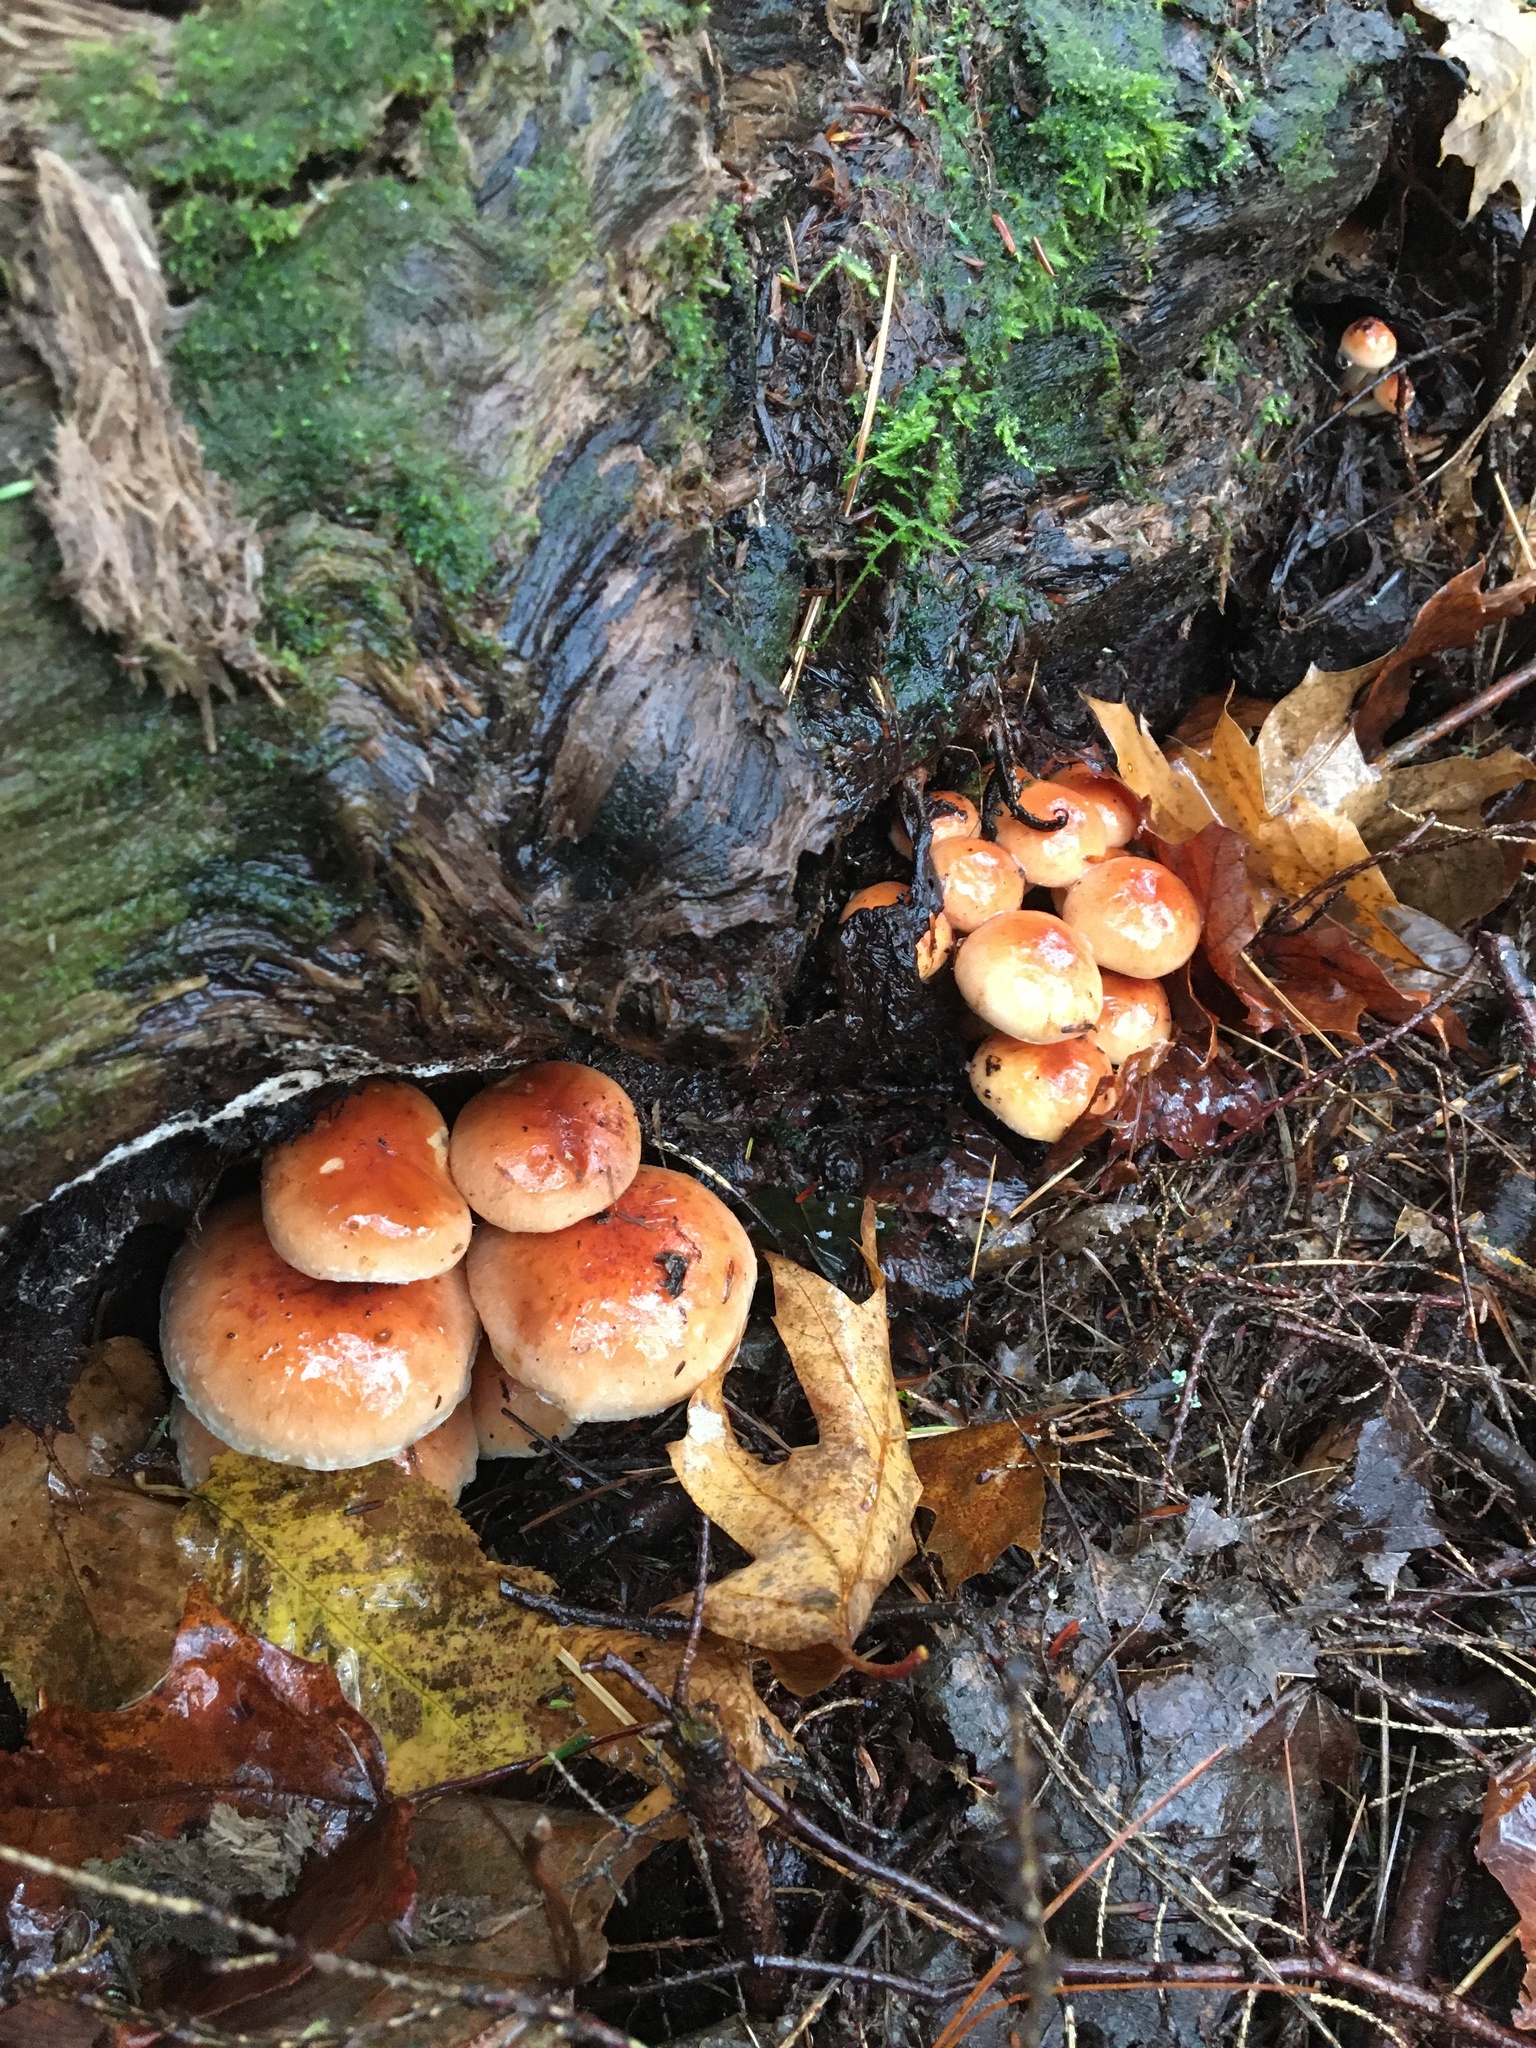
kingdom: Fungi
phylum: Basidiomycota
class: Agaricomycetes
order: Agaricales
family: Strophariaceae
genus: Hypholoma
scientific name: Hypholoma lateritium
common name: Brick caps
